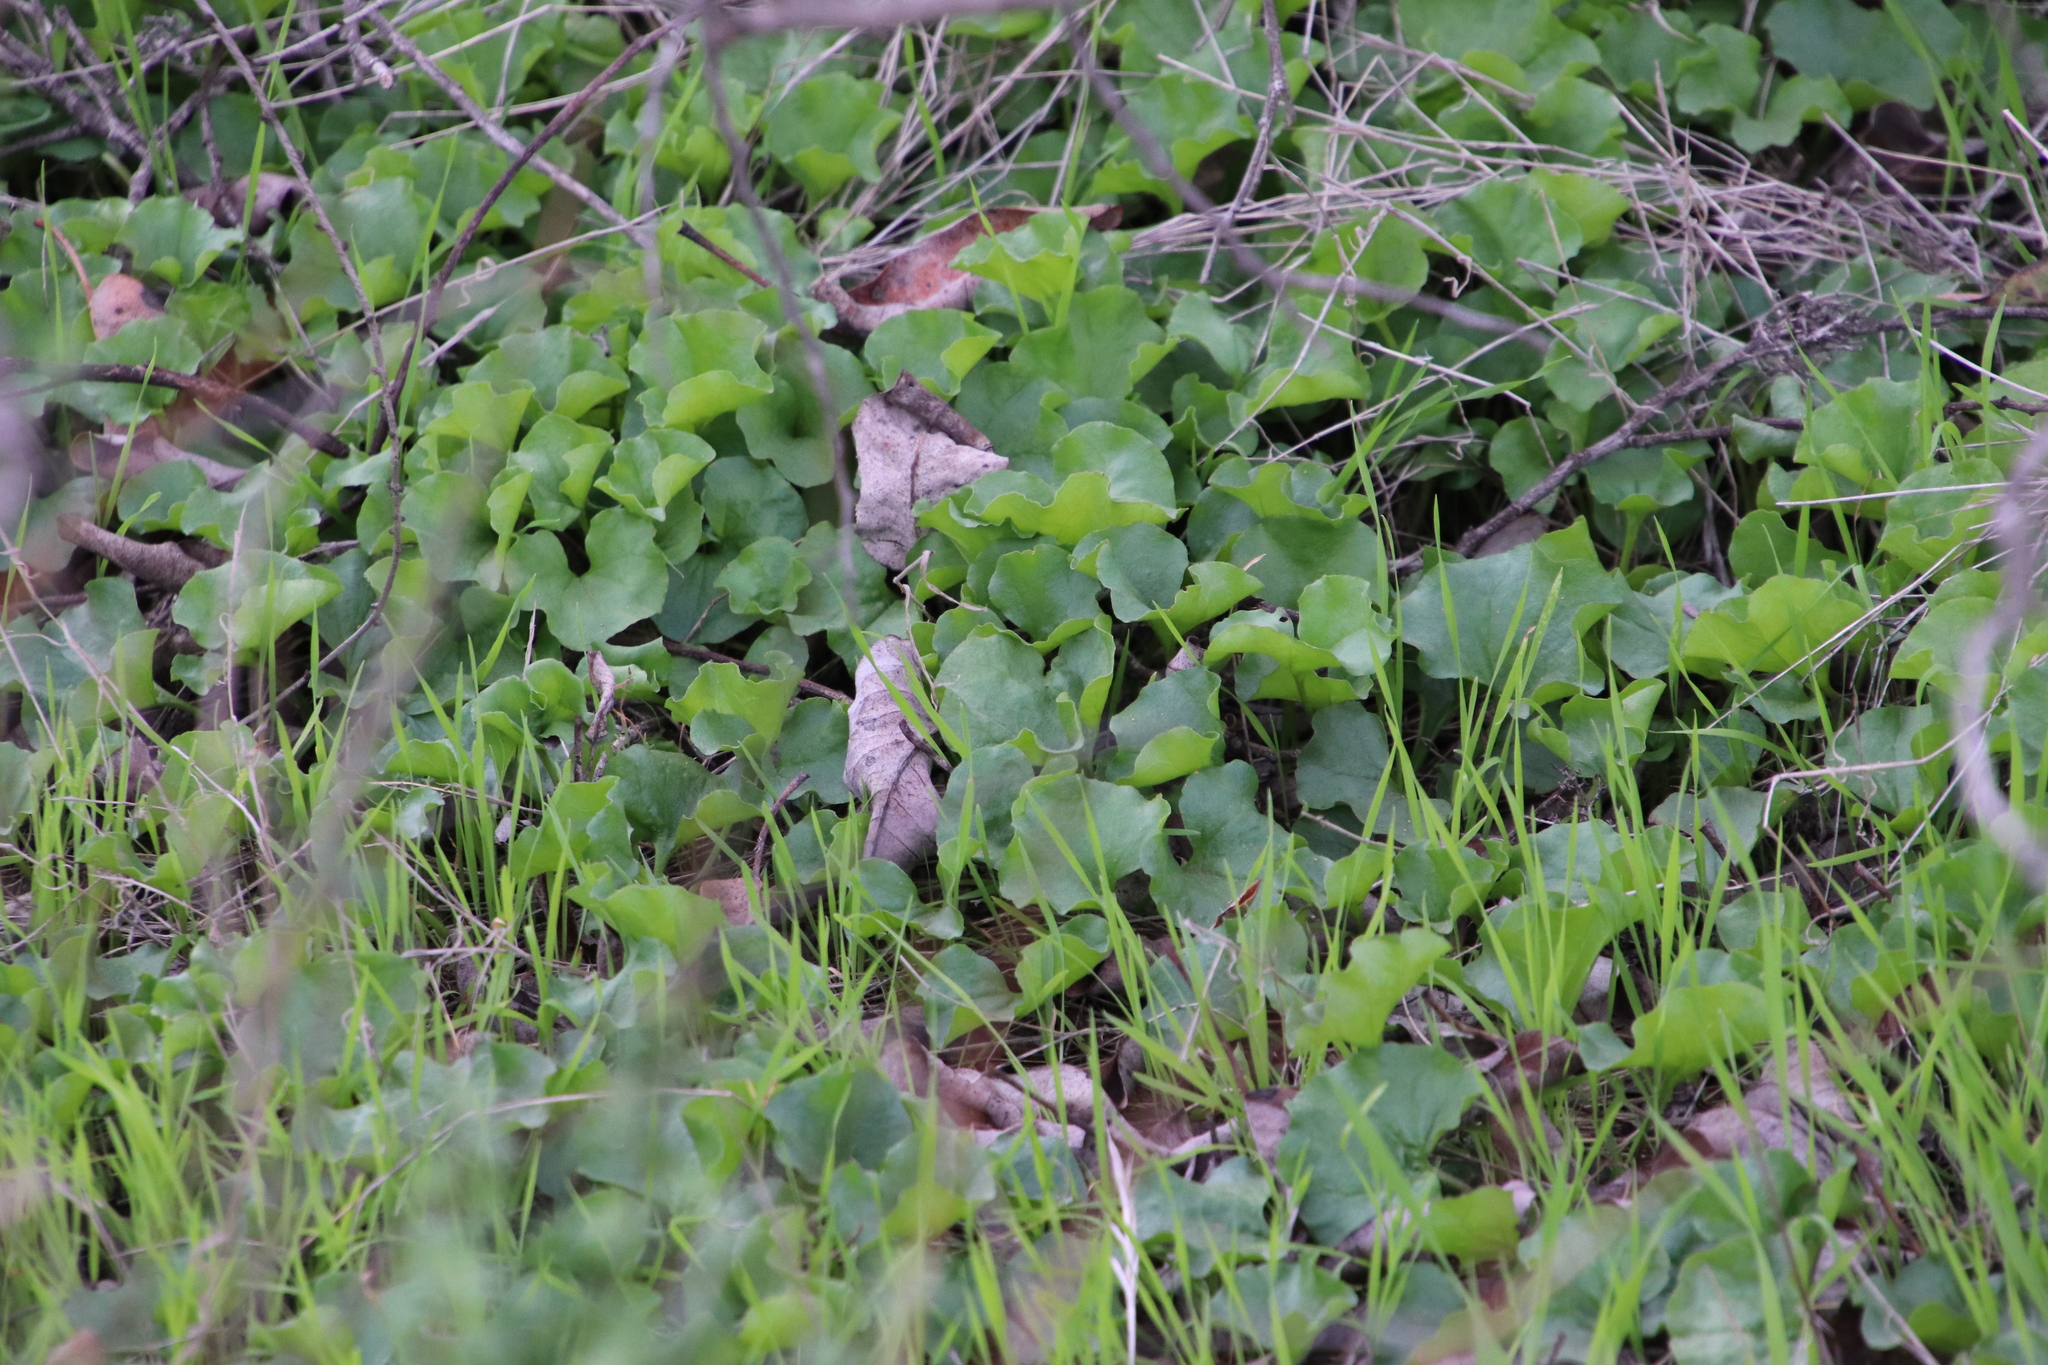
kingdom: Plantae
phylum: Tracheophyta
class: Magnoliopsida
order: Solanales
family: Convolvulaceae
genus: Dichondra
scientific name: Dichondra occidentalis
